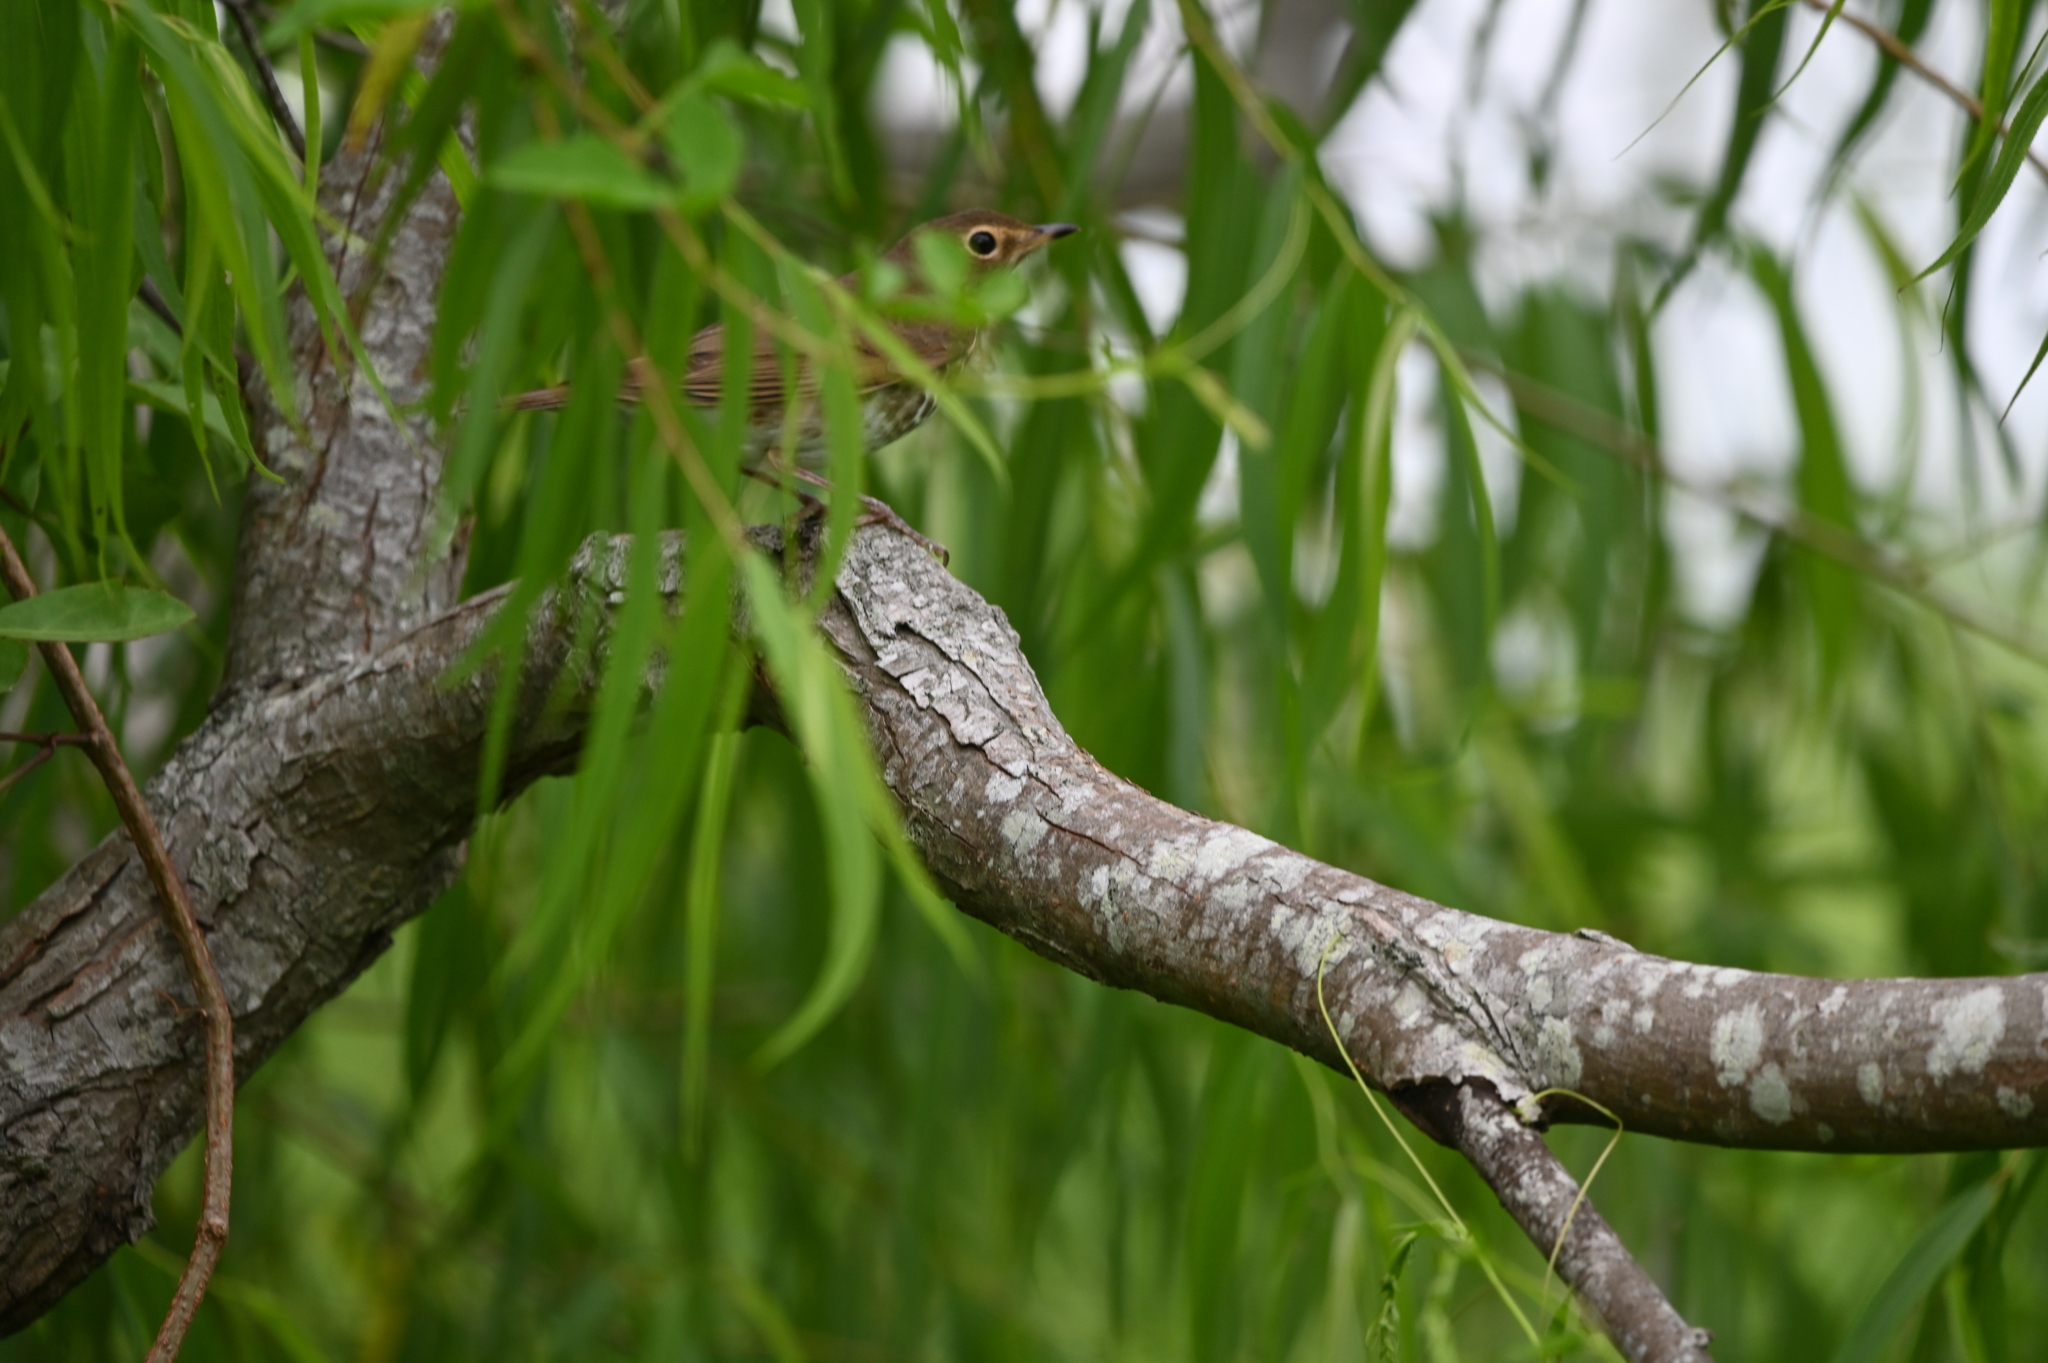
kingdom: Animalia
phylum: Chordata
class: Aves
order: Passeriformes
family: Turdidae
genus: Catharus
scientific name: Catharus ustulatus
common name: Swainson's thrush
